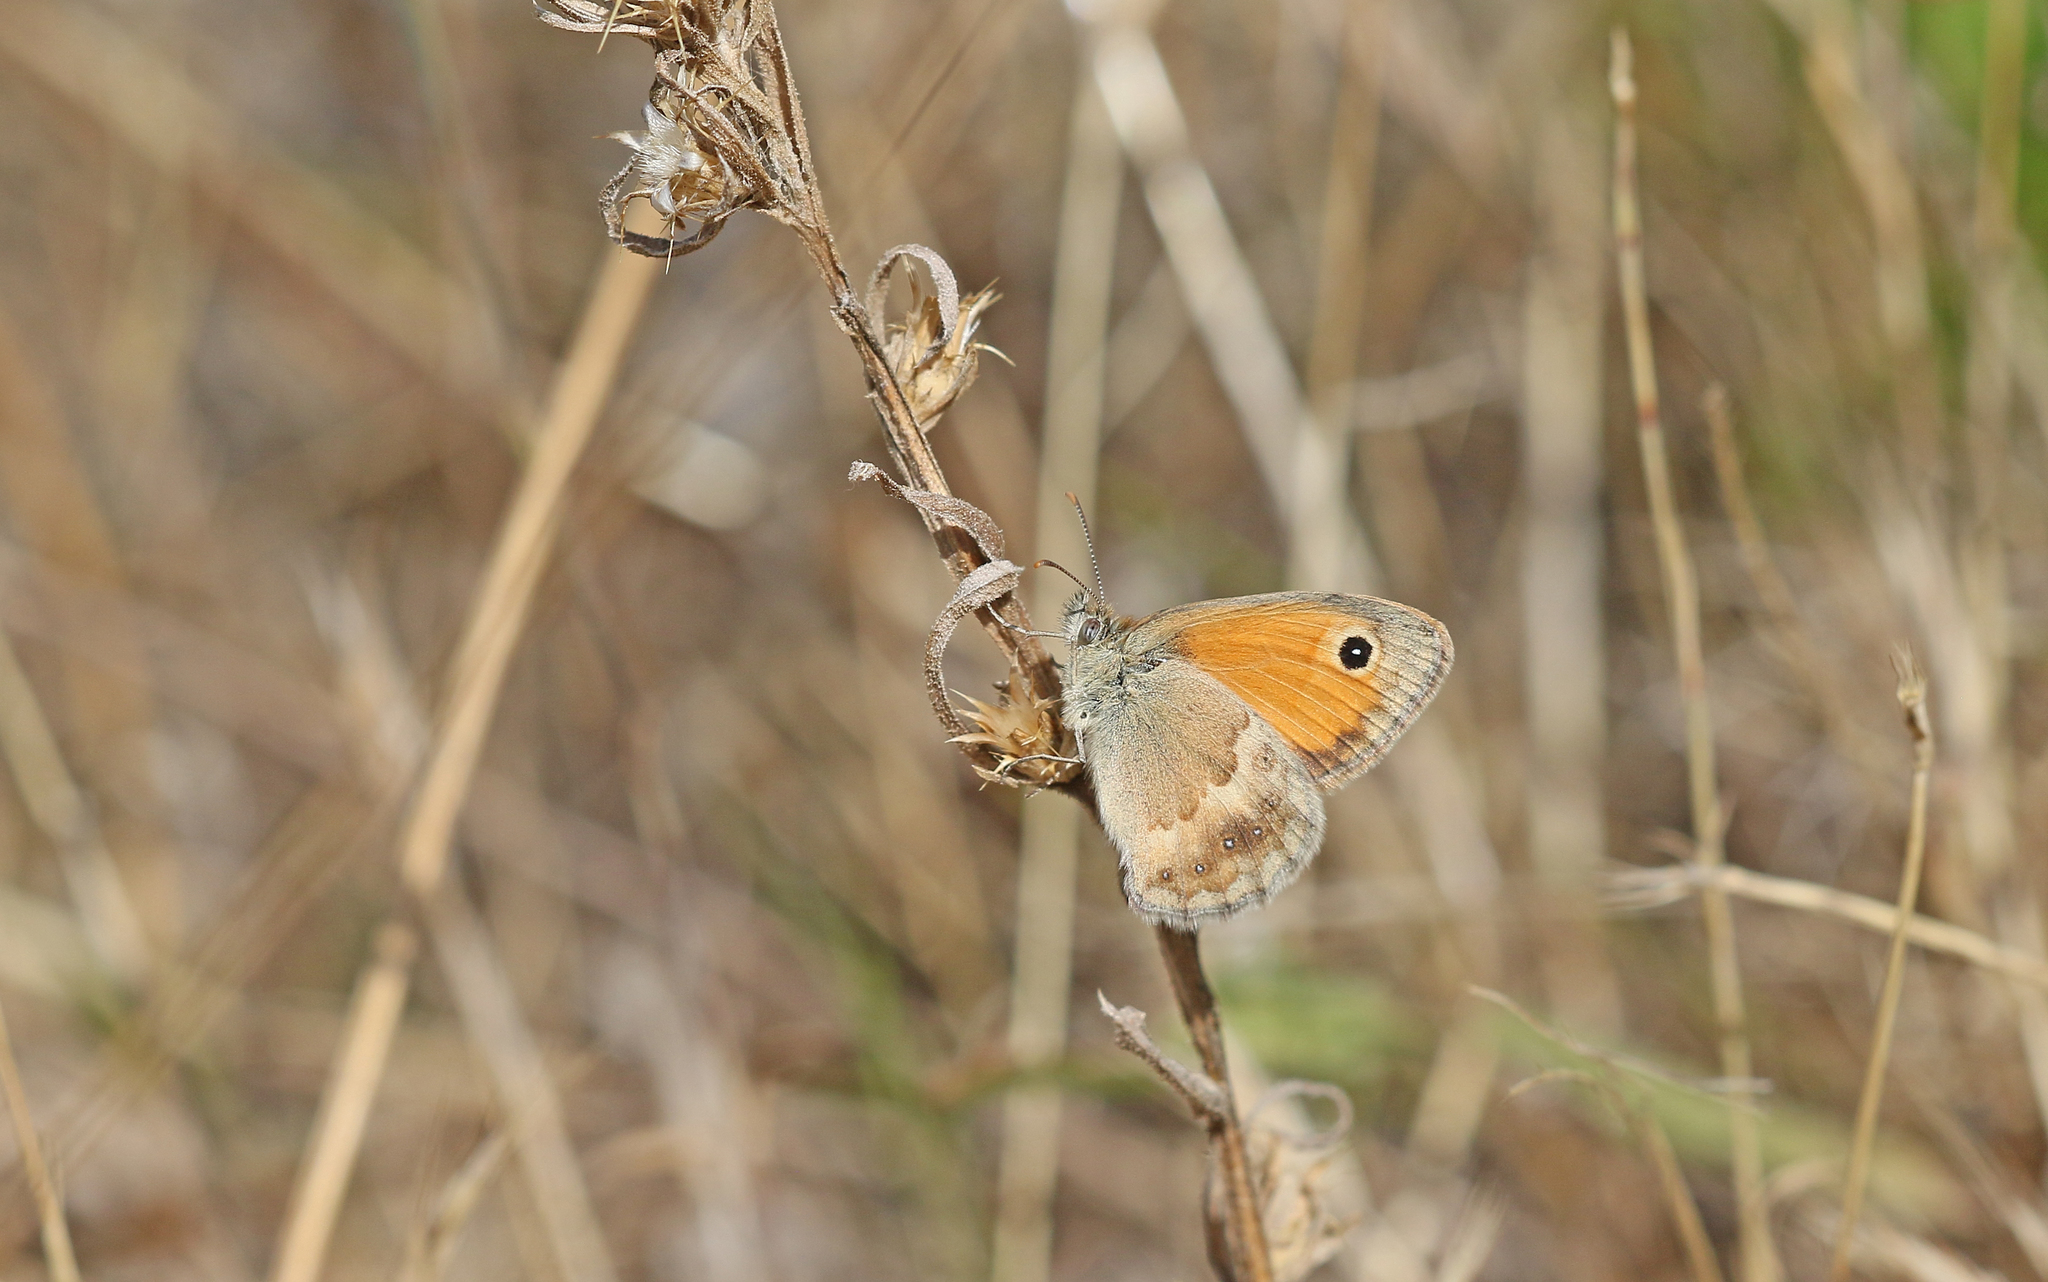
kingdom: Animalia
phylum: Arthropoda
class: Insecta
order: Lepidoptera
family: Nymphalidae
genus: Coenonympha
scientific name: Coenonympha pamphilus
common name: Small heath
